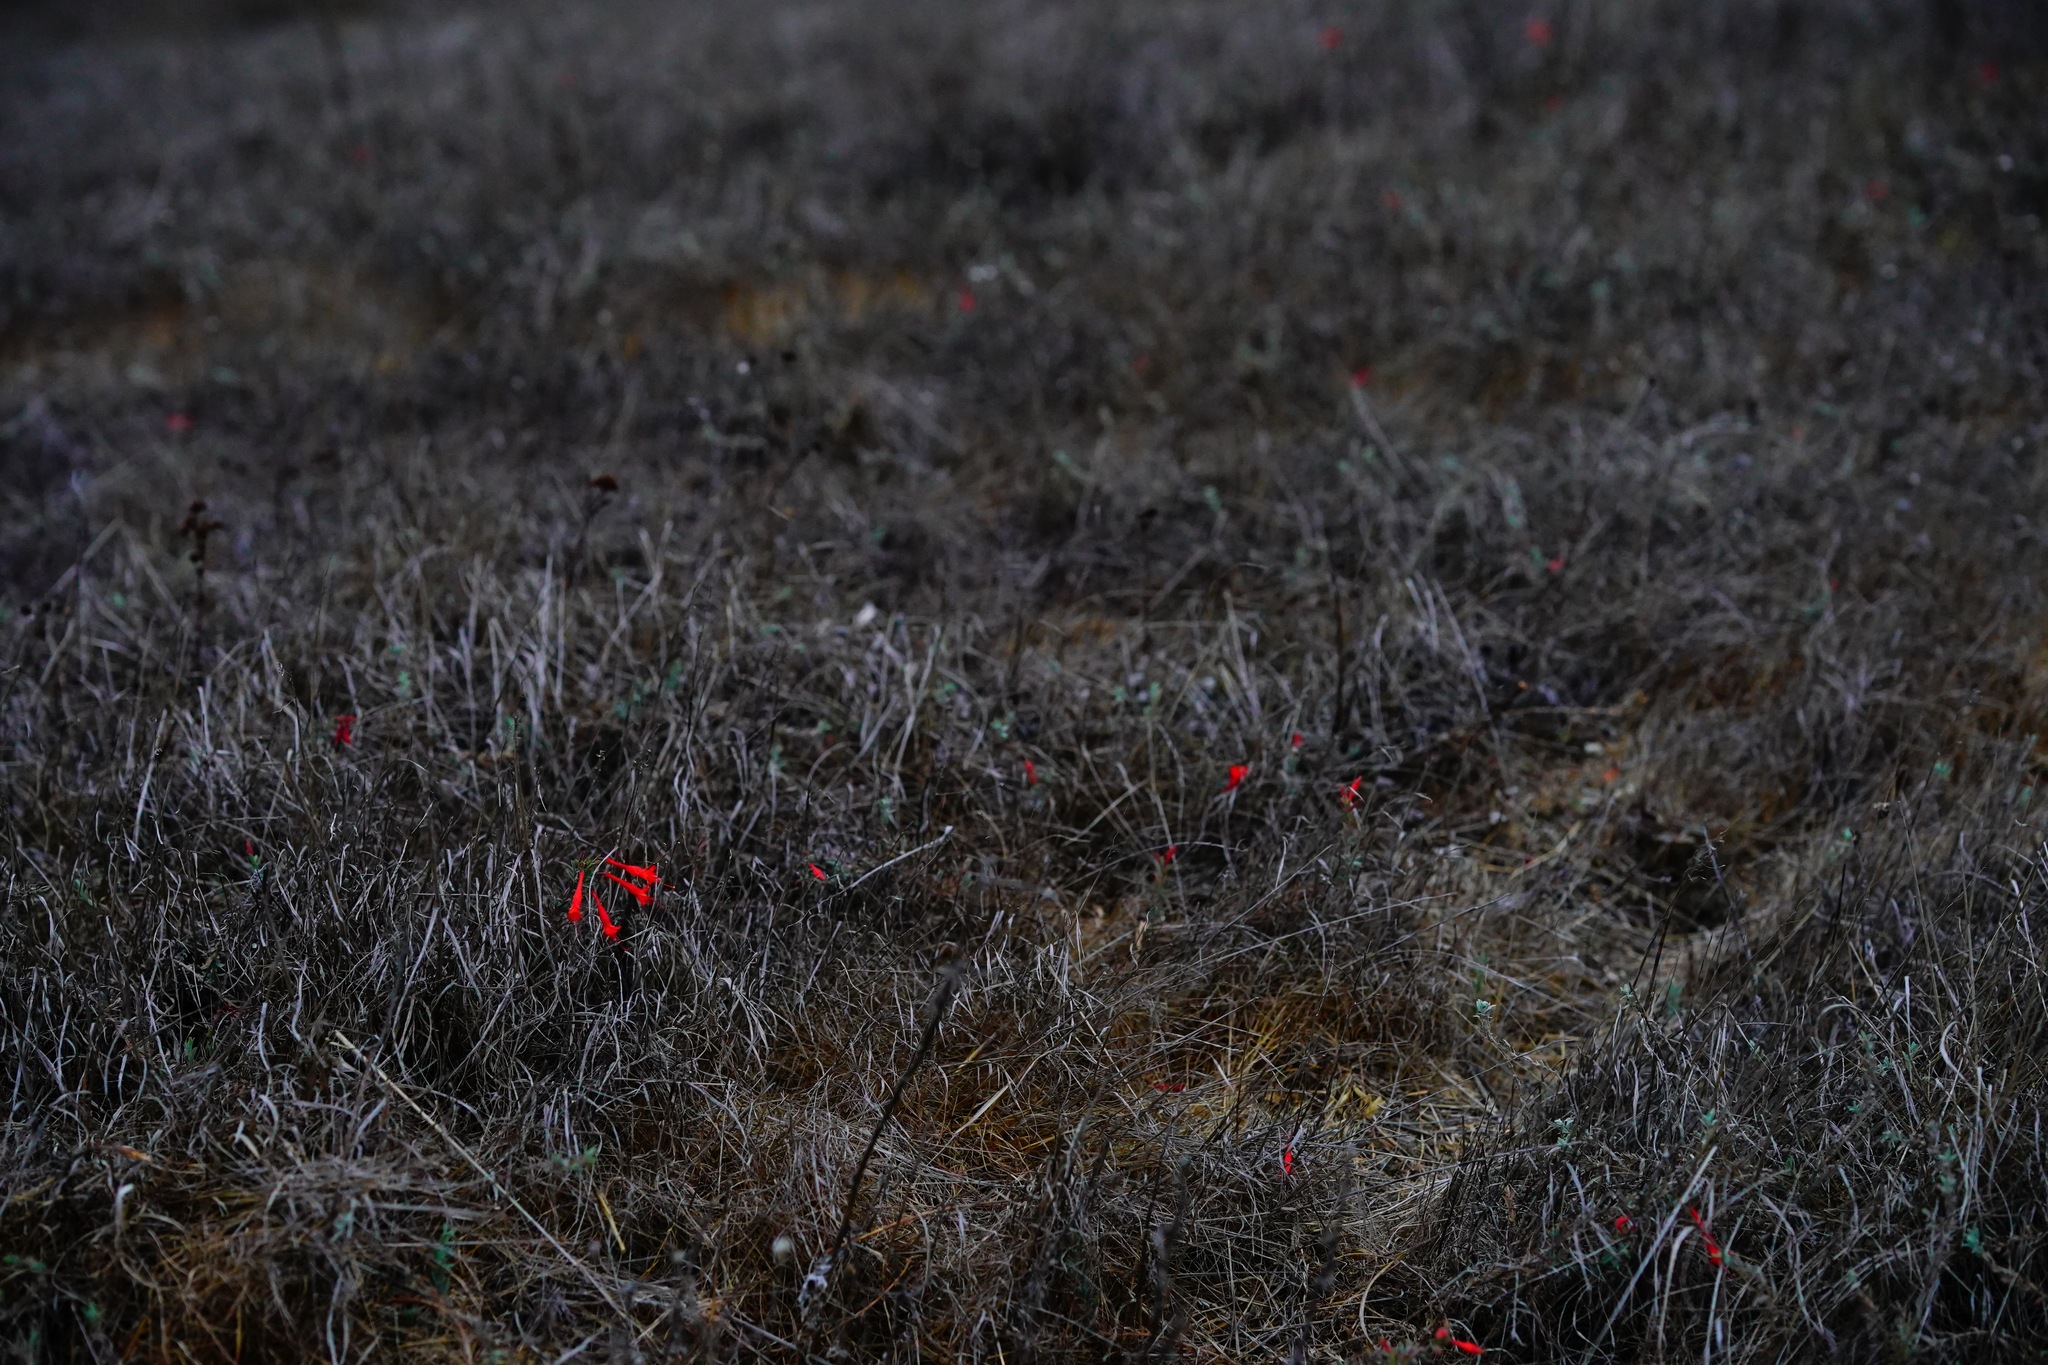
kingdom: Plantae
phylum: Tracheophyta
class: Magnoliopsida
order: Myrtales
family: Onagraceae
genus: Epilobium
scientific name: Epilobium canum
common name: California-fuchsia
